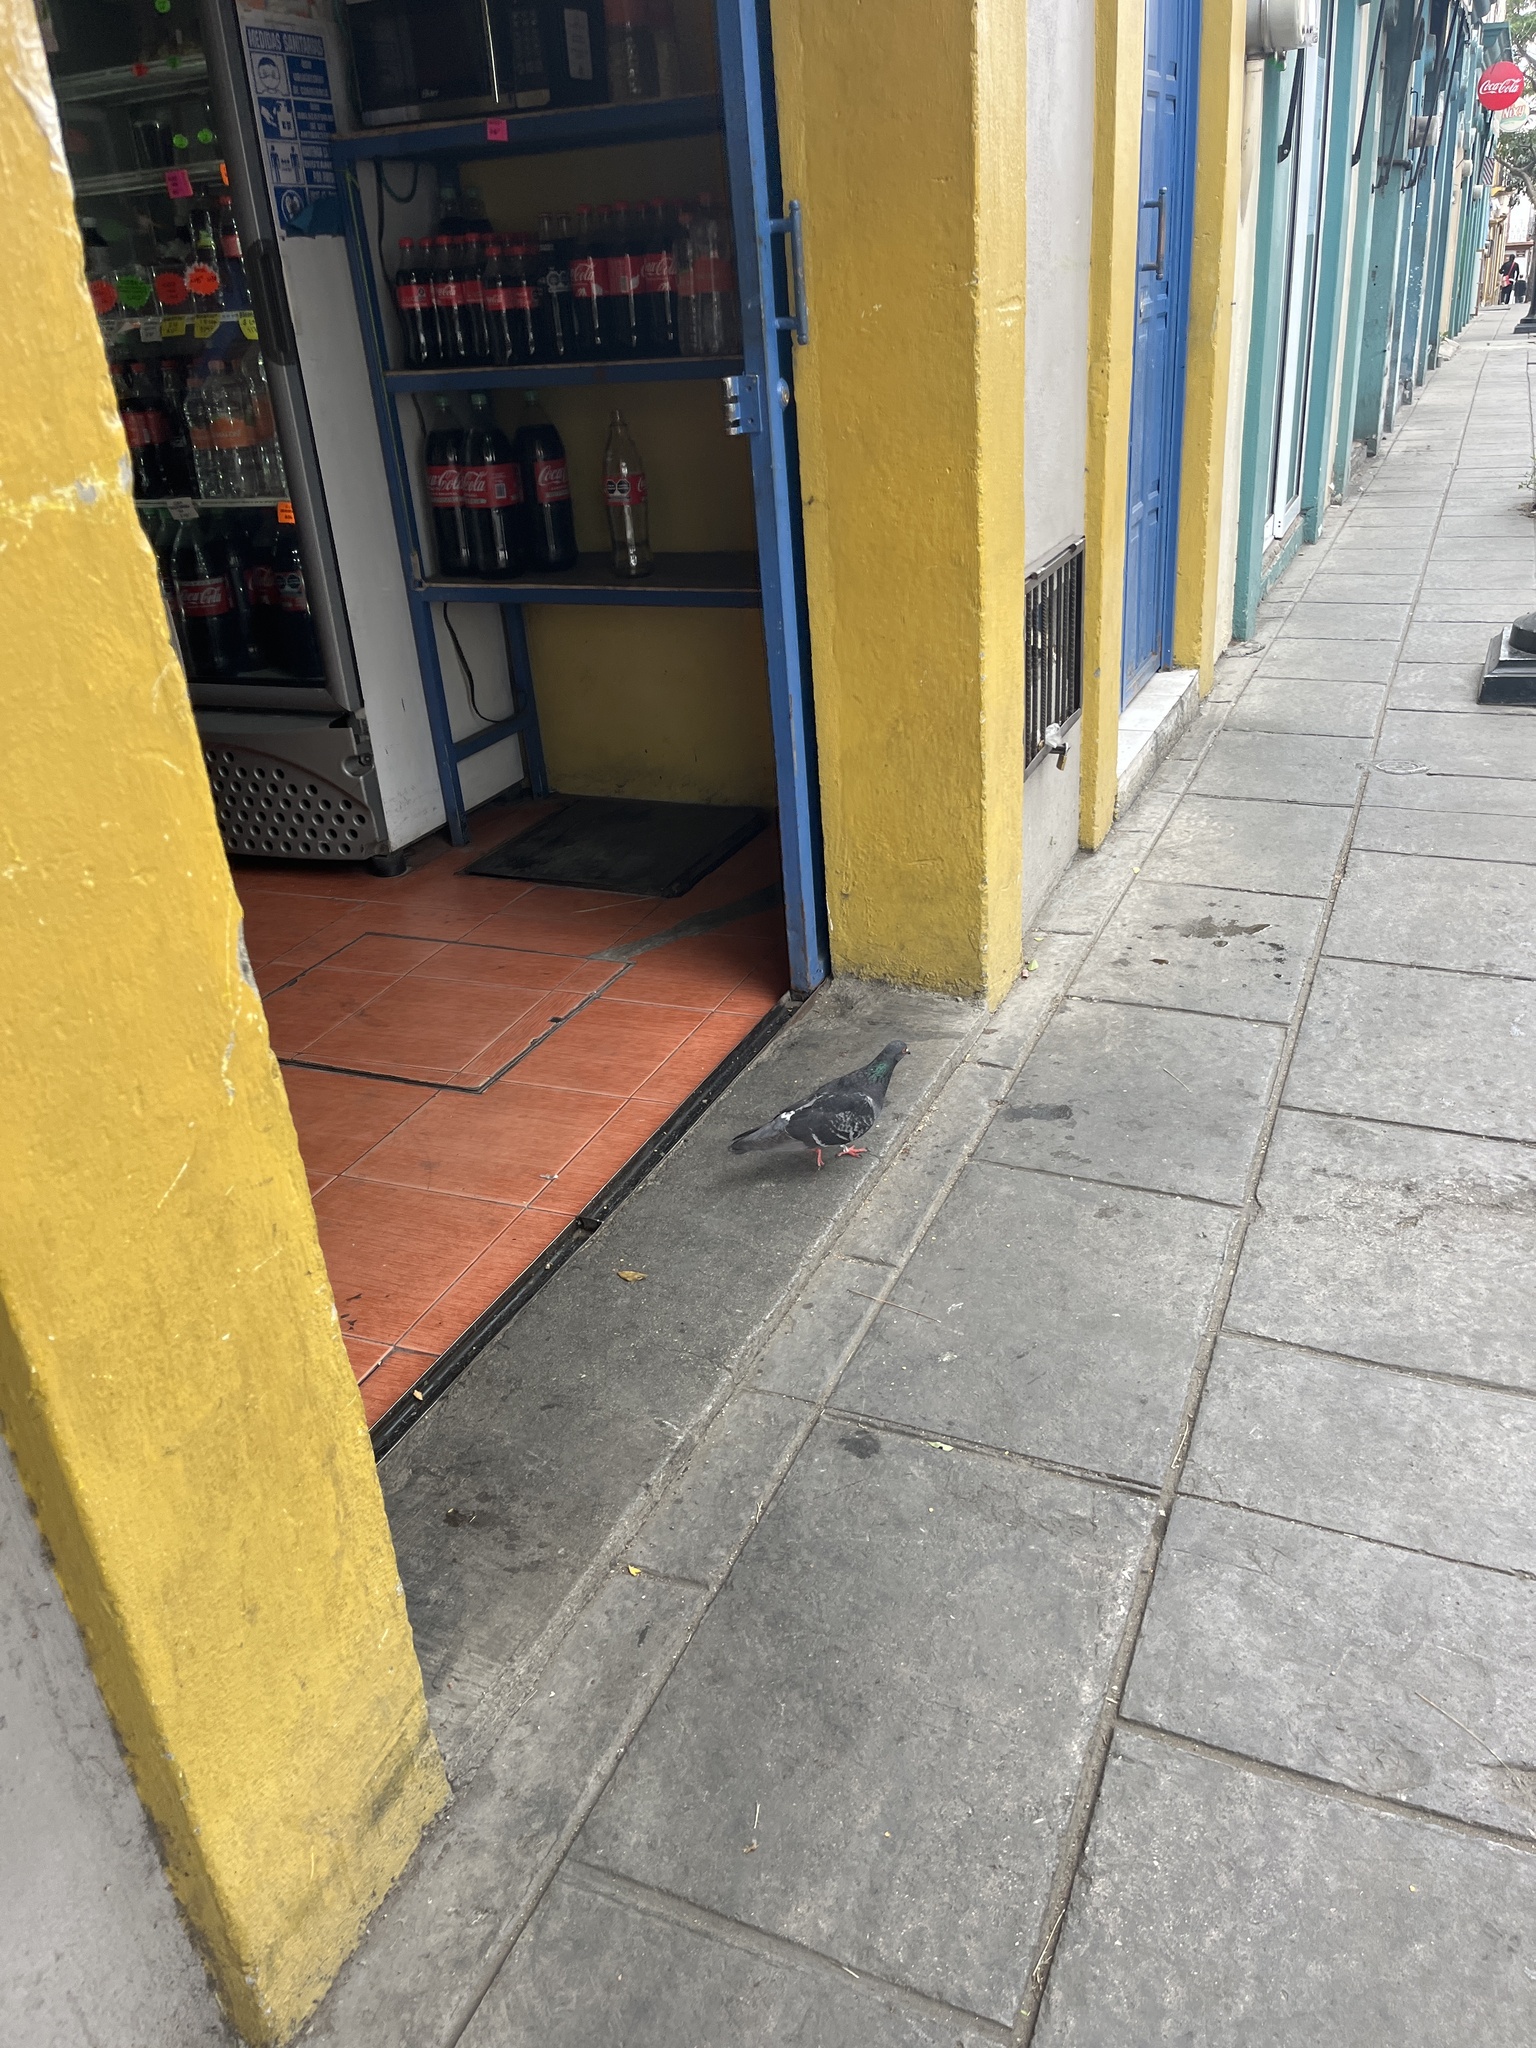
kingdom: Animalia
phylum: Chordata
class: Aves
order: Columbiformes
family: Columbidae
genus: Columba
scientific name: Columba livia
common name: Rock pigeon
